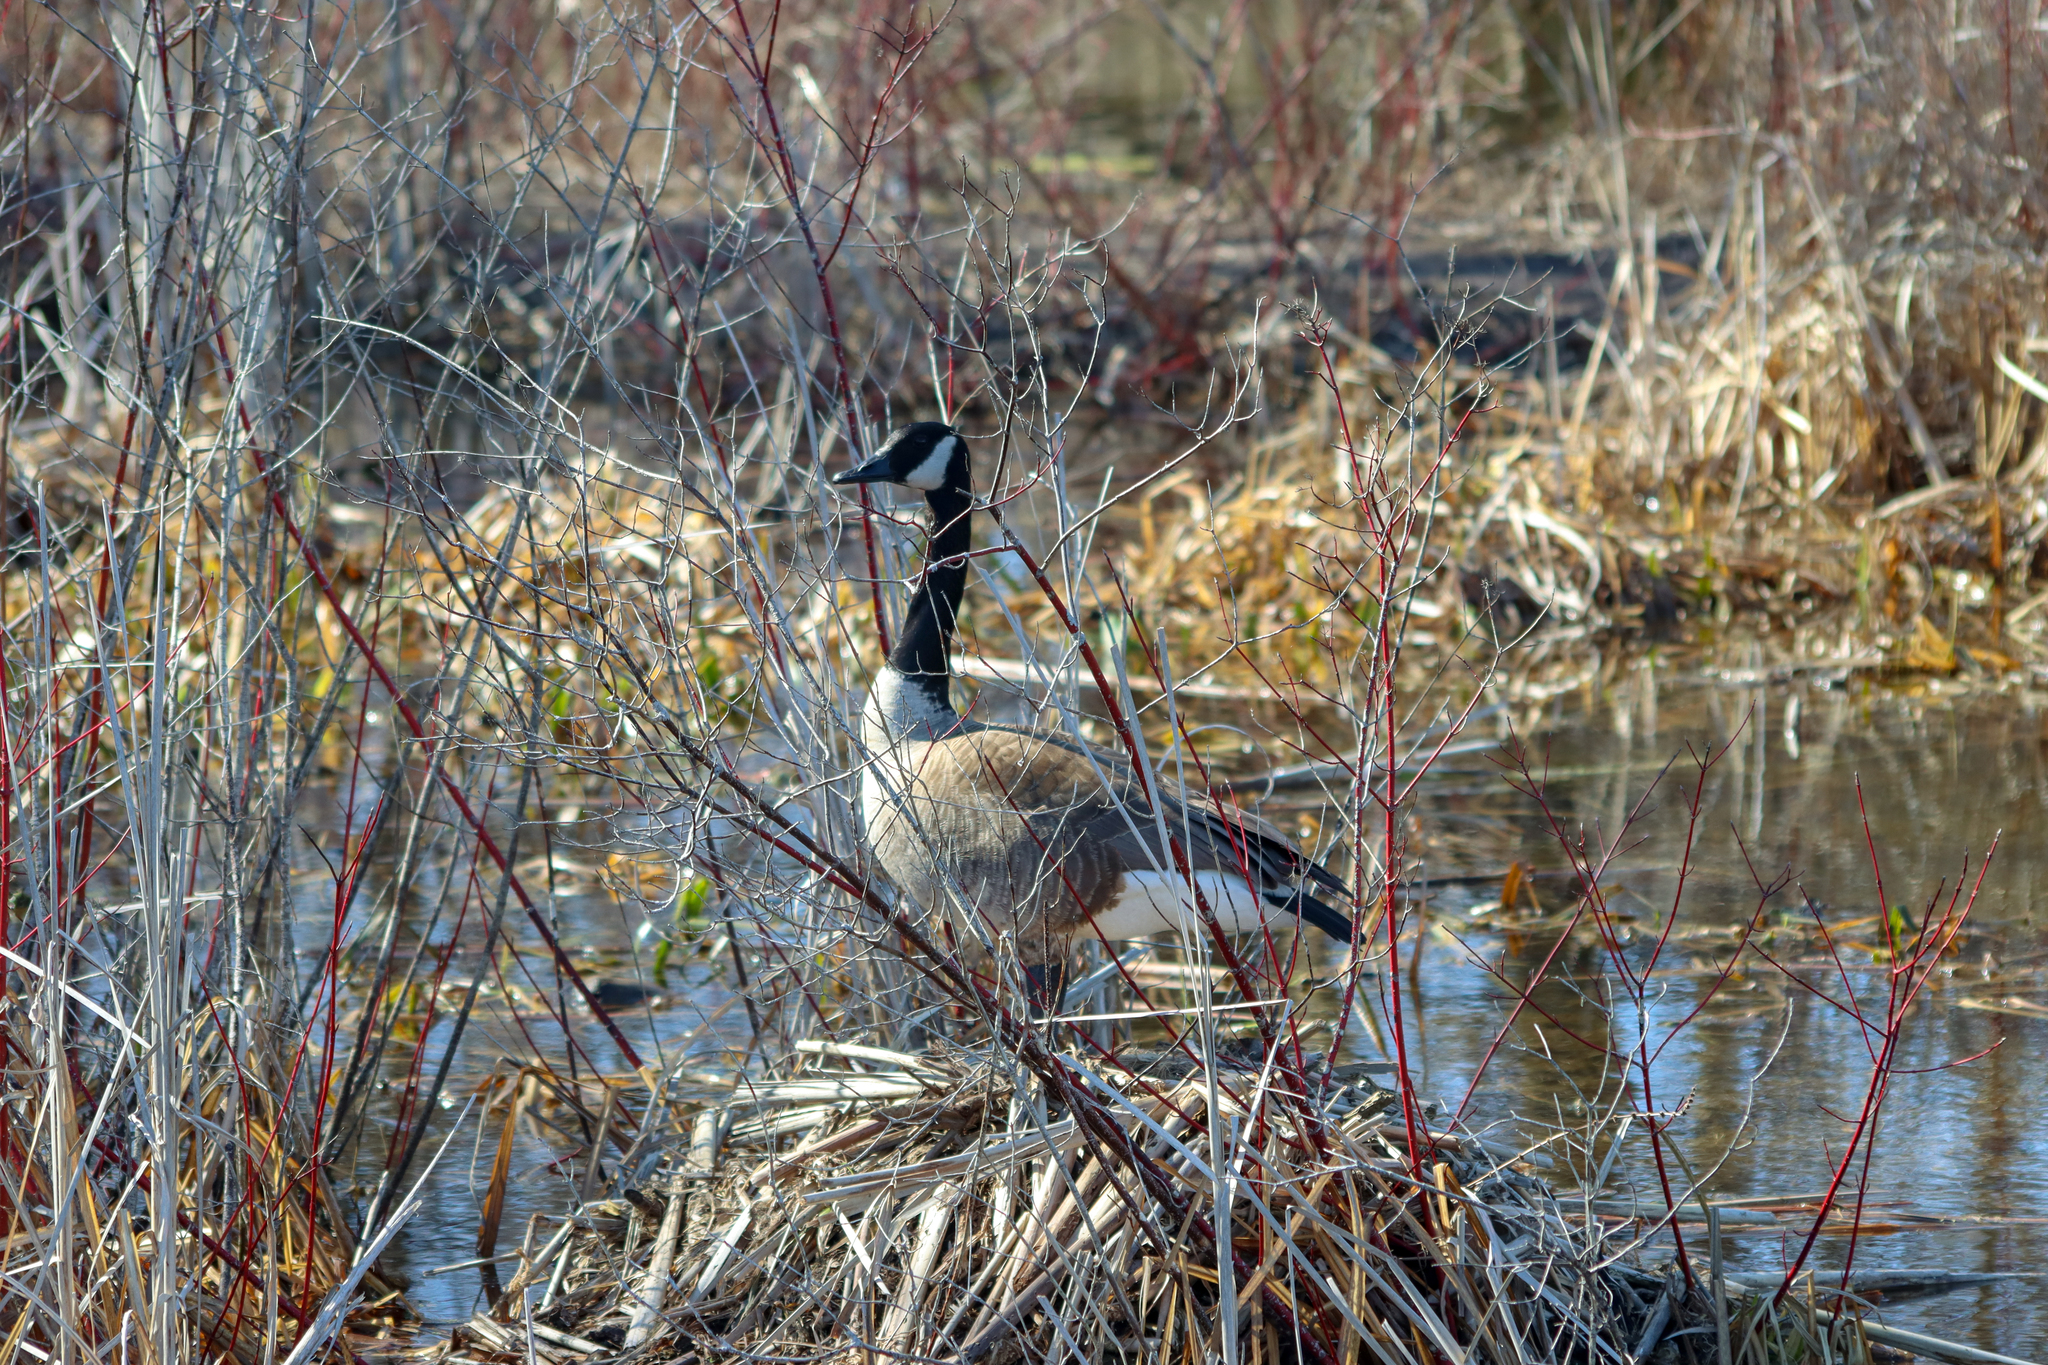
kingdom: Animalia
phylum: Chordata
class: Aves
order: Anseriformes
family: Anatidae
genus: Branta
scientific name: Branta canadensis
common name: Canada goose
